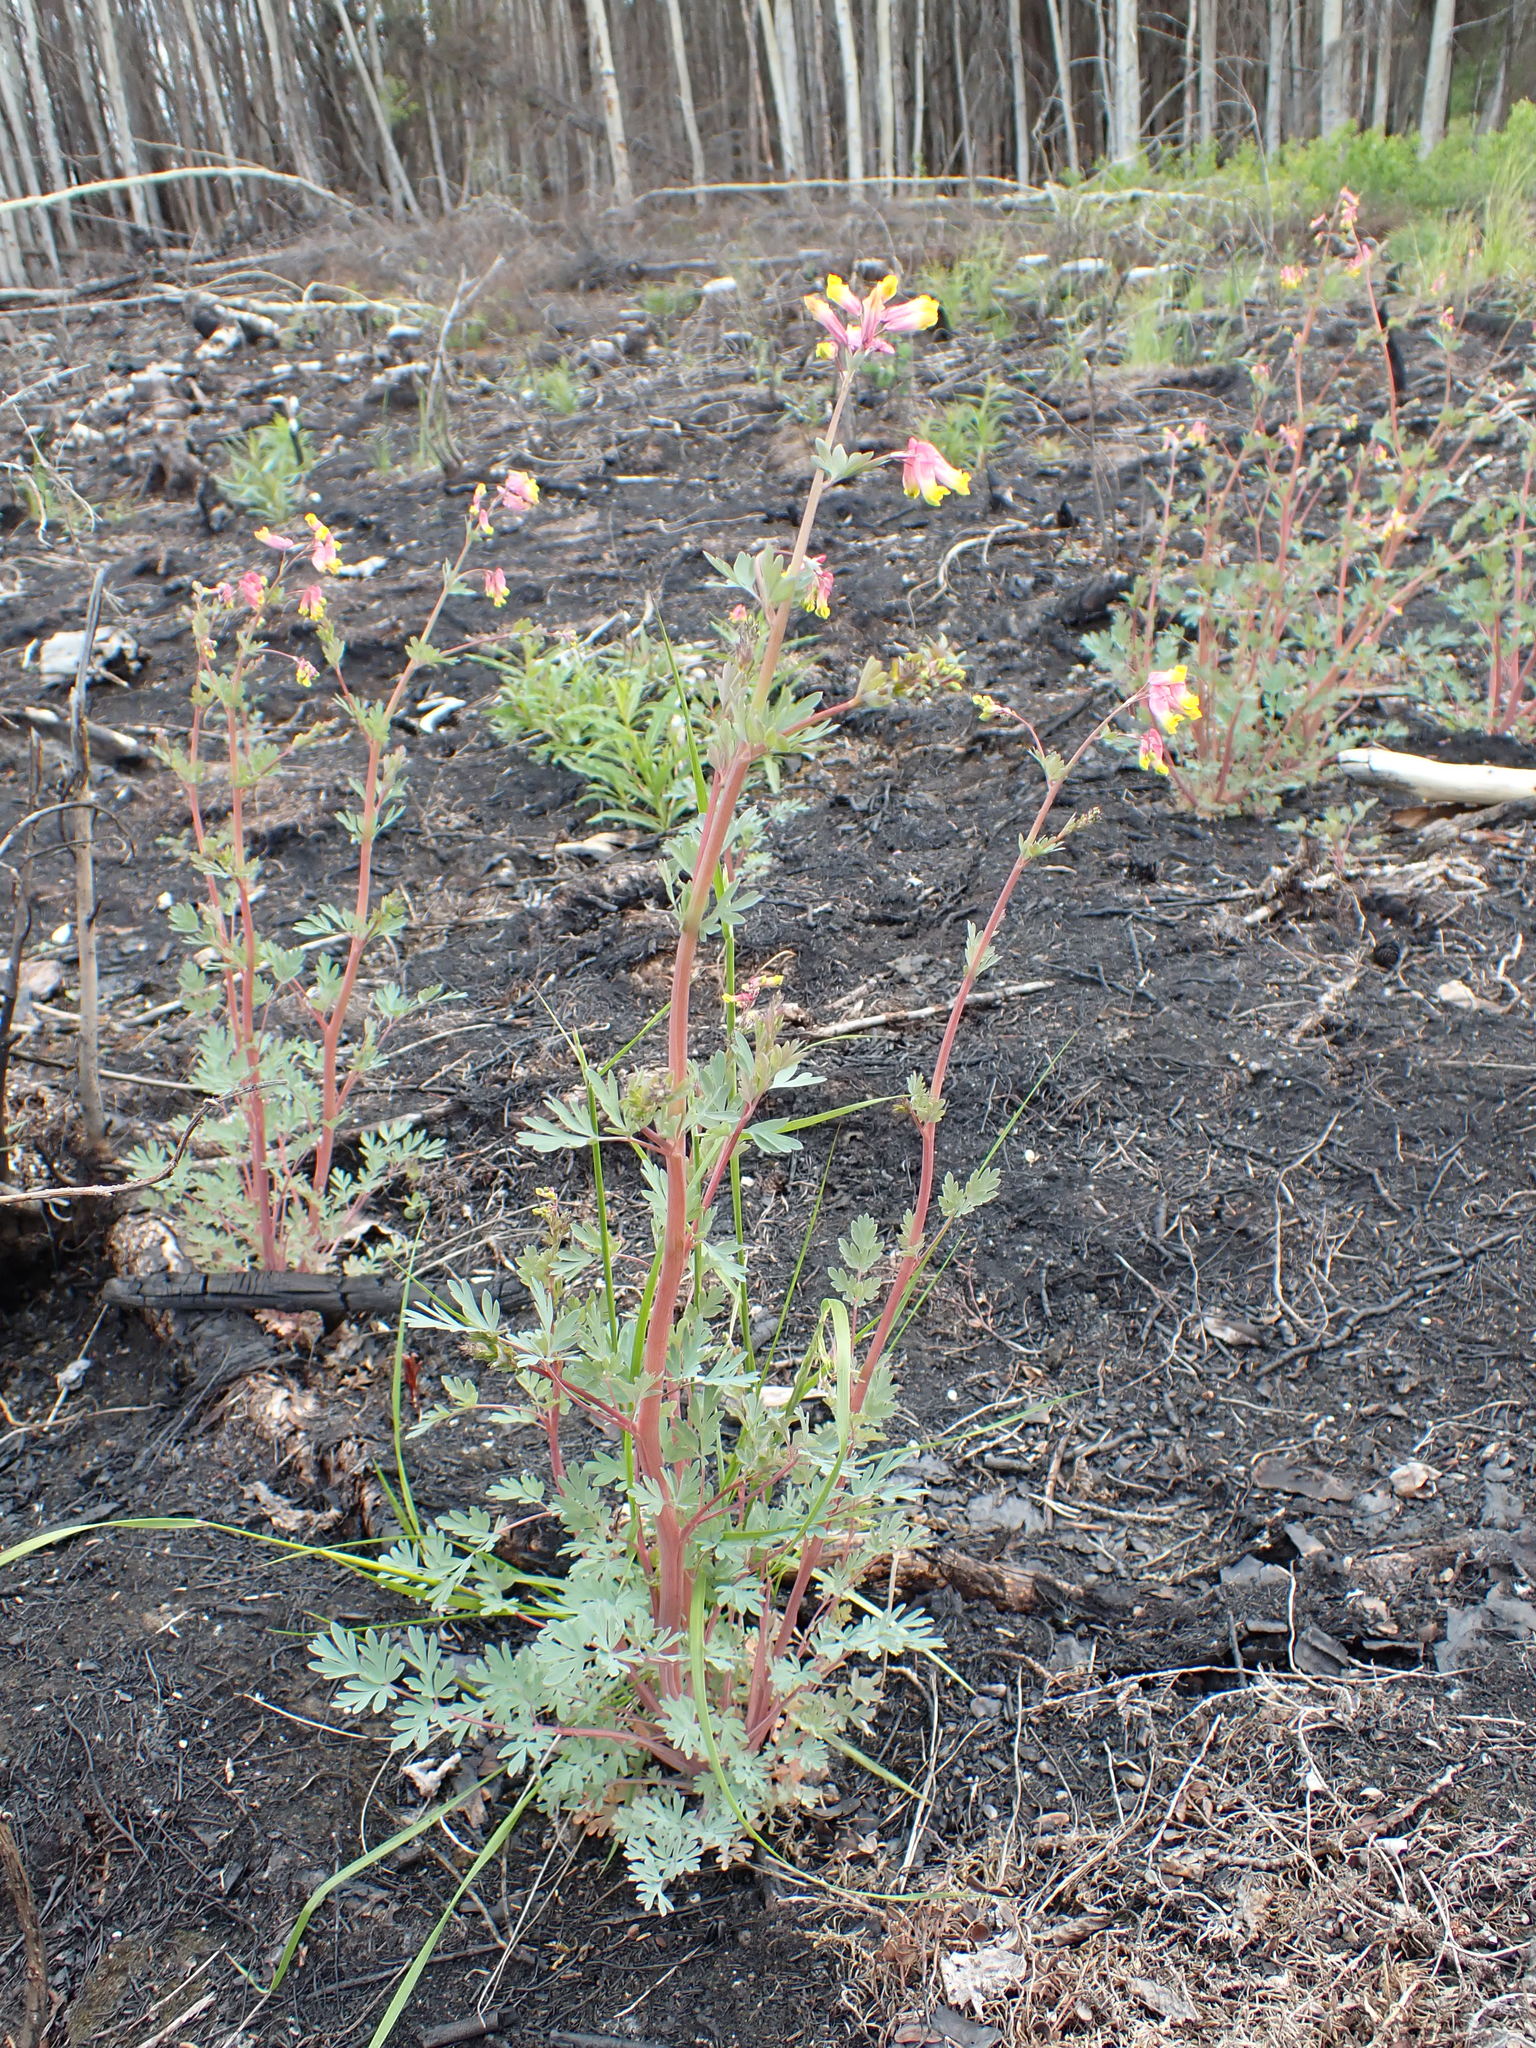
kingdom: Plantae
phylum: Tracheophyta
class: Magnoliopsida
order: Ranunculales
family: Papaveraceae
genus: Capnoides
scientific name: Capnoides sempervirens
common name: Rock harlequin
